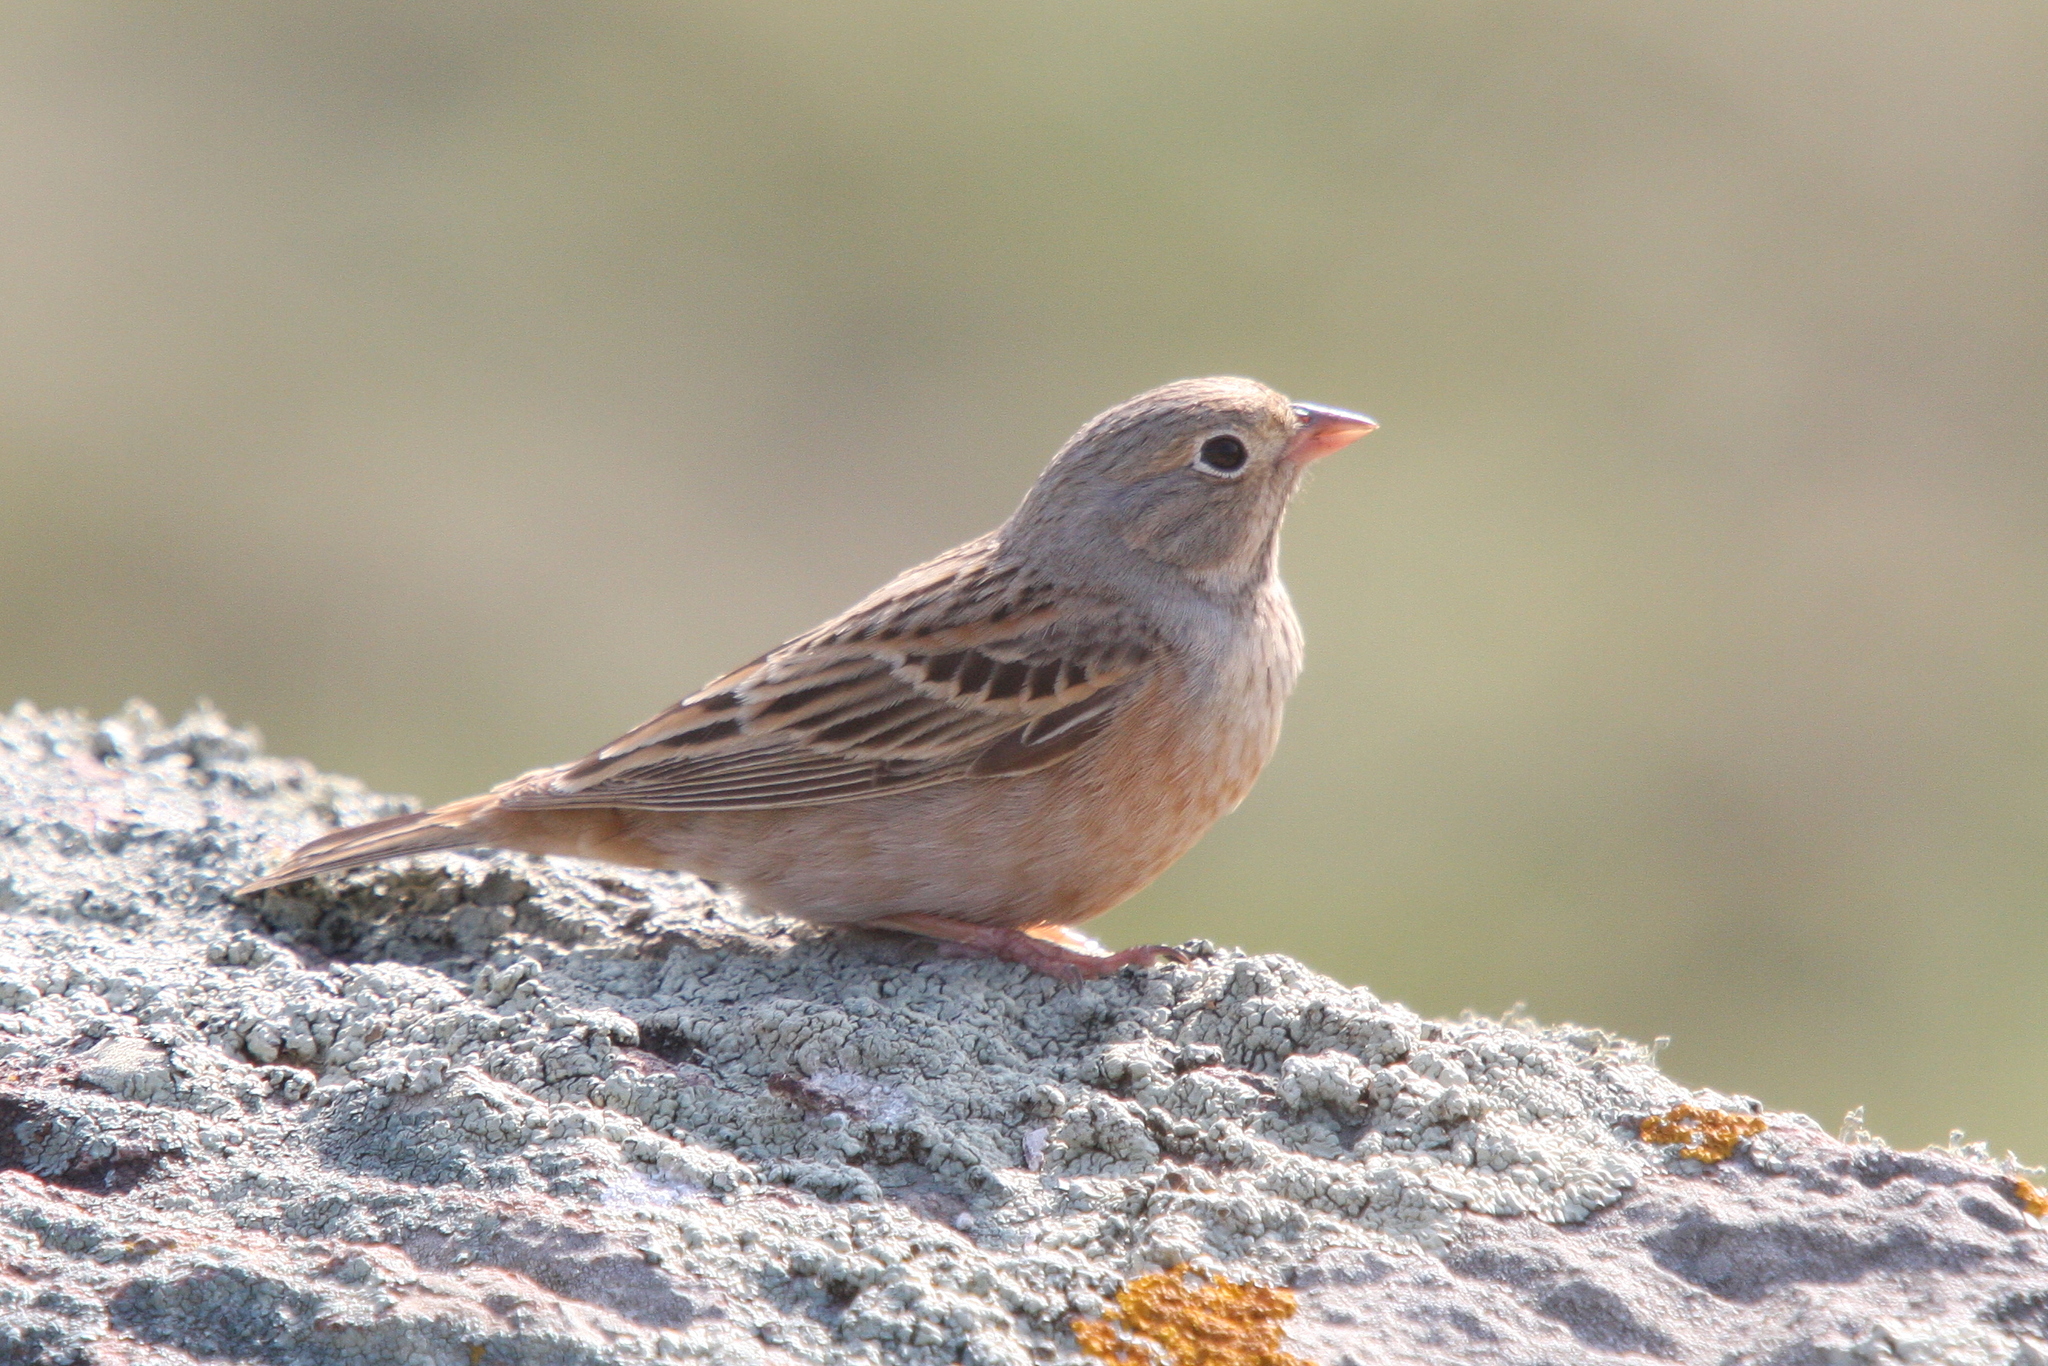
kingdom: Animalia
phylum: Chordata
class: Aves
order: Passeriformes
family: Emberizidae
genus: Emberiza
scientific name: Emberiza caesia
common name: Cretzschmar's bunting
